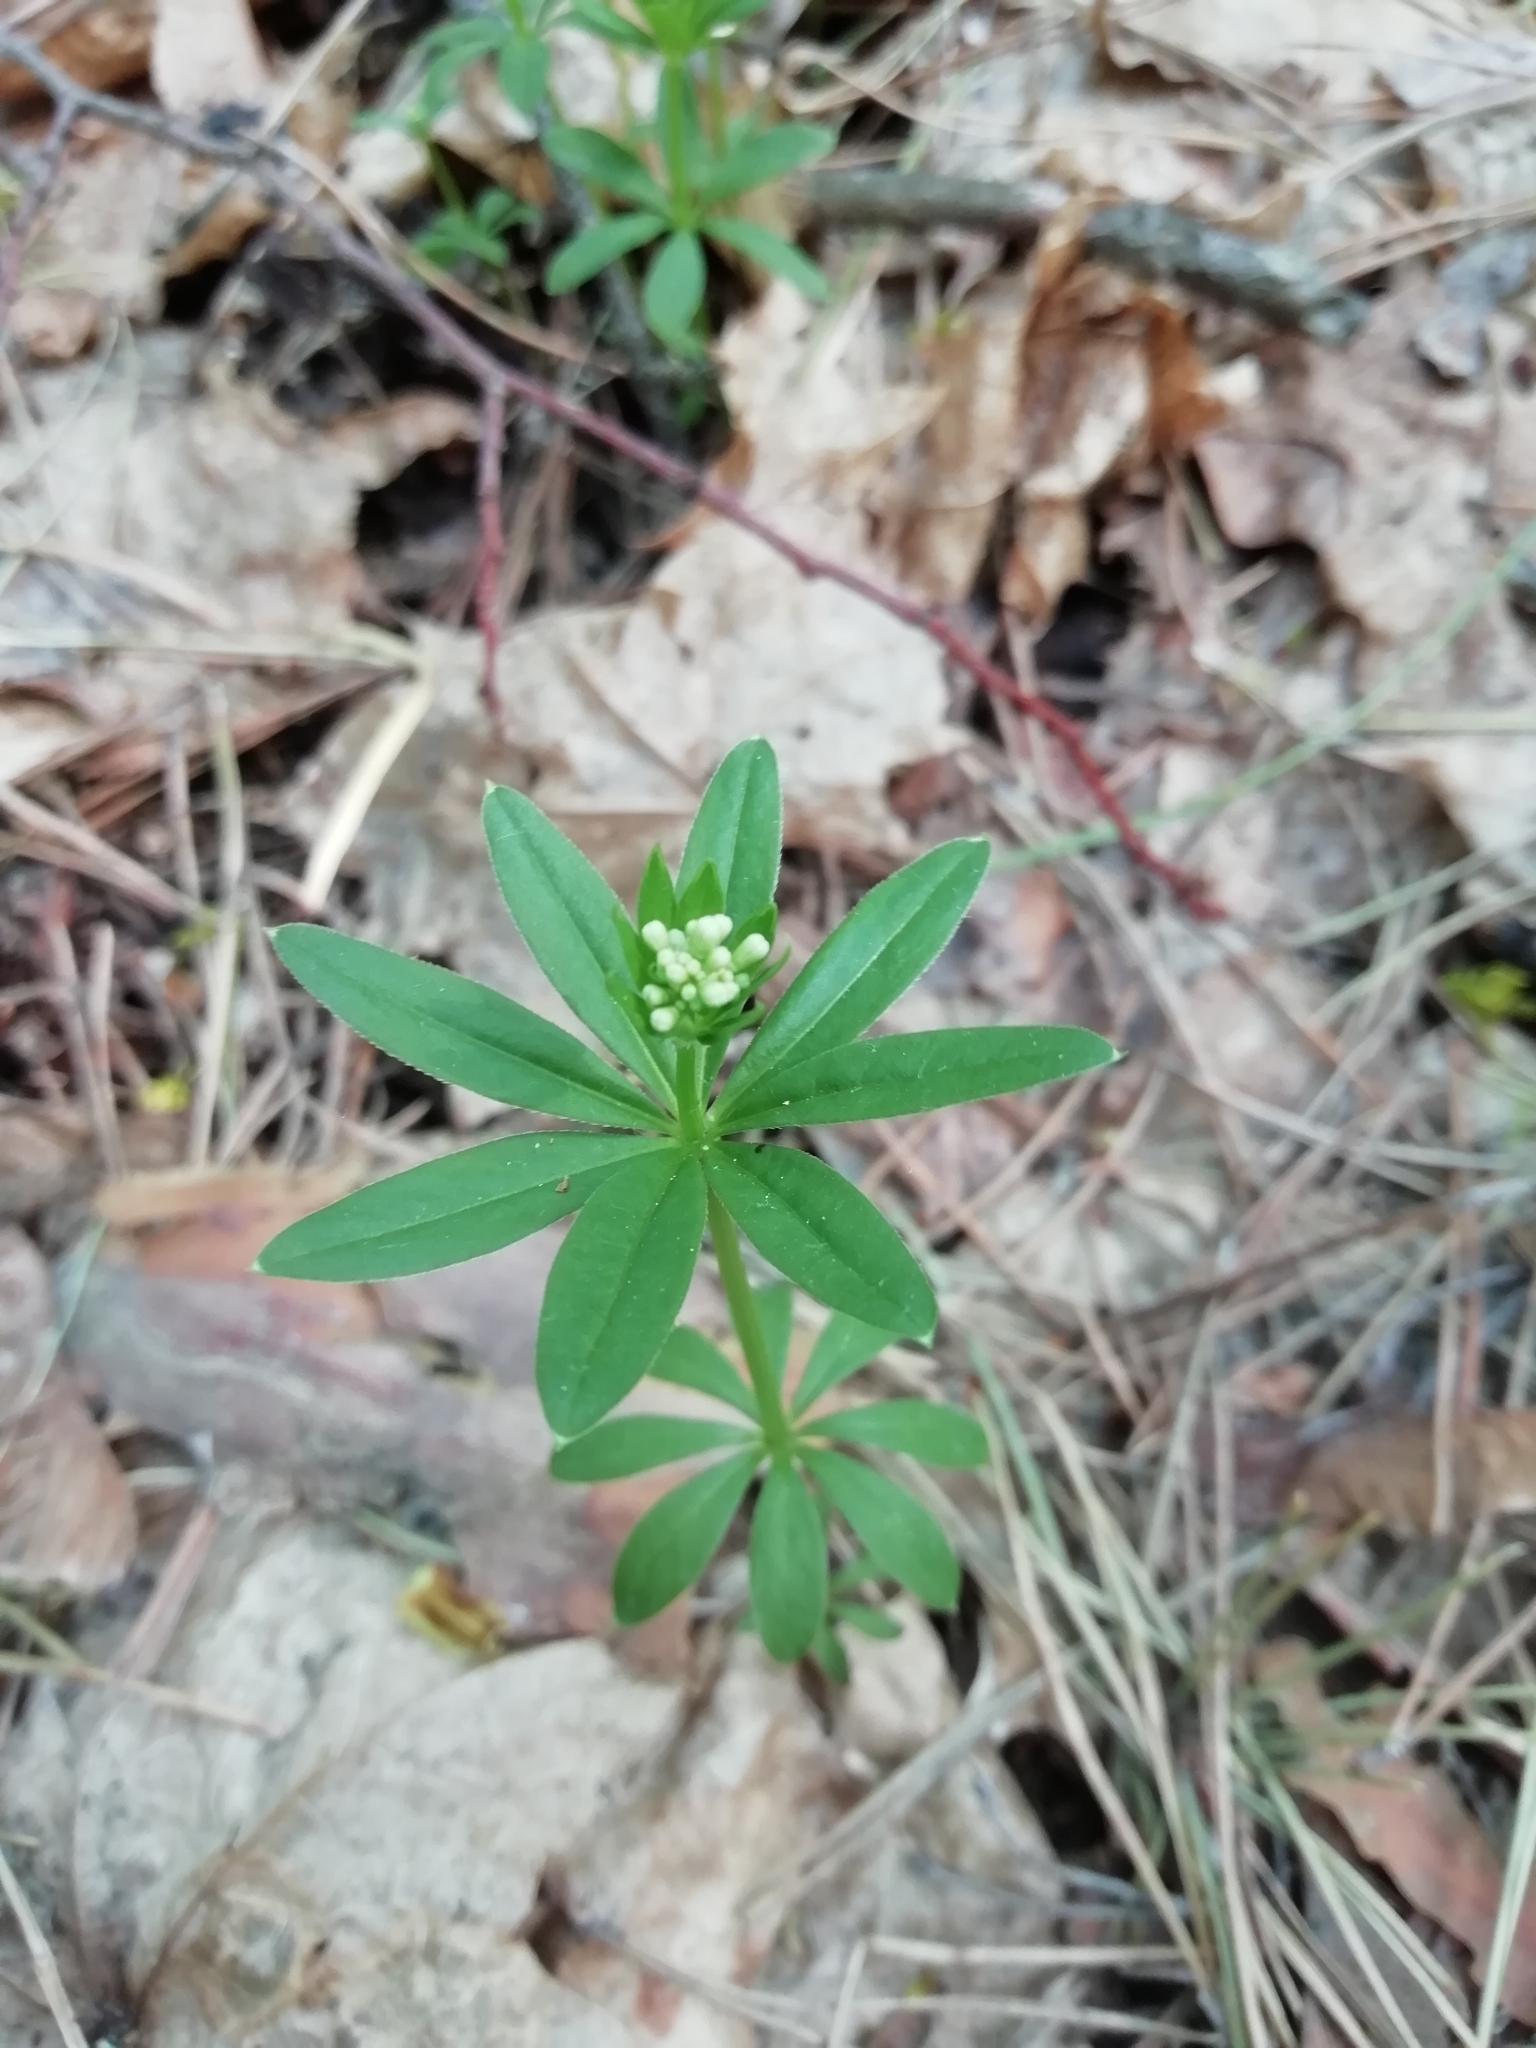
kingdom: Plantae
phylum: Tracheophyta
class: Magnoliopsida
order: Gentianales
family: Rubiaceae
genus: Galium
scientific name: Galium odoratum
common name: Sweet woodruff
